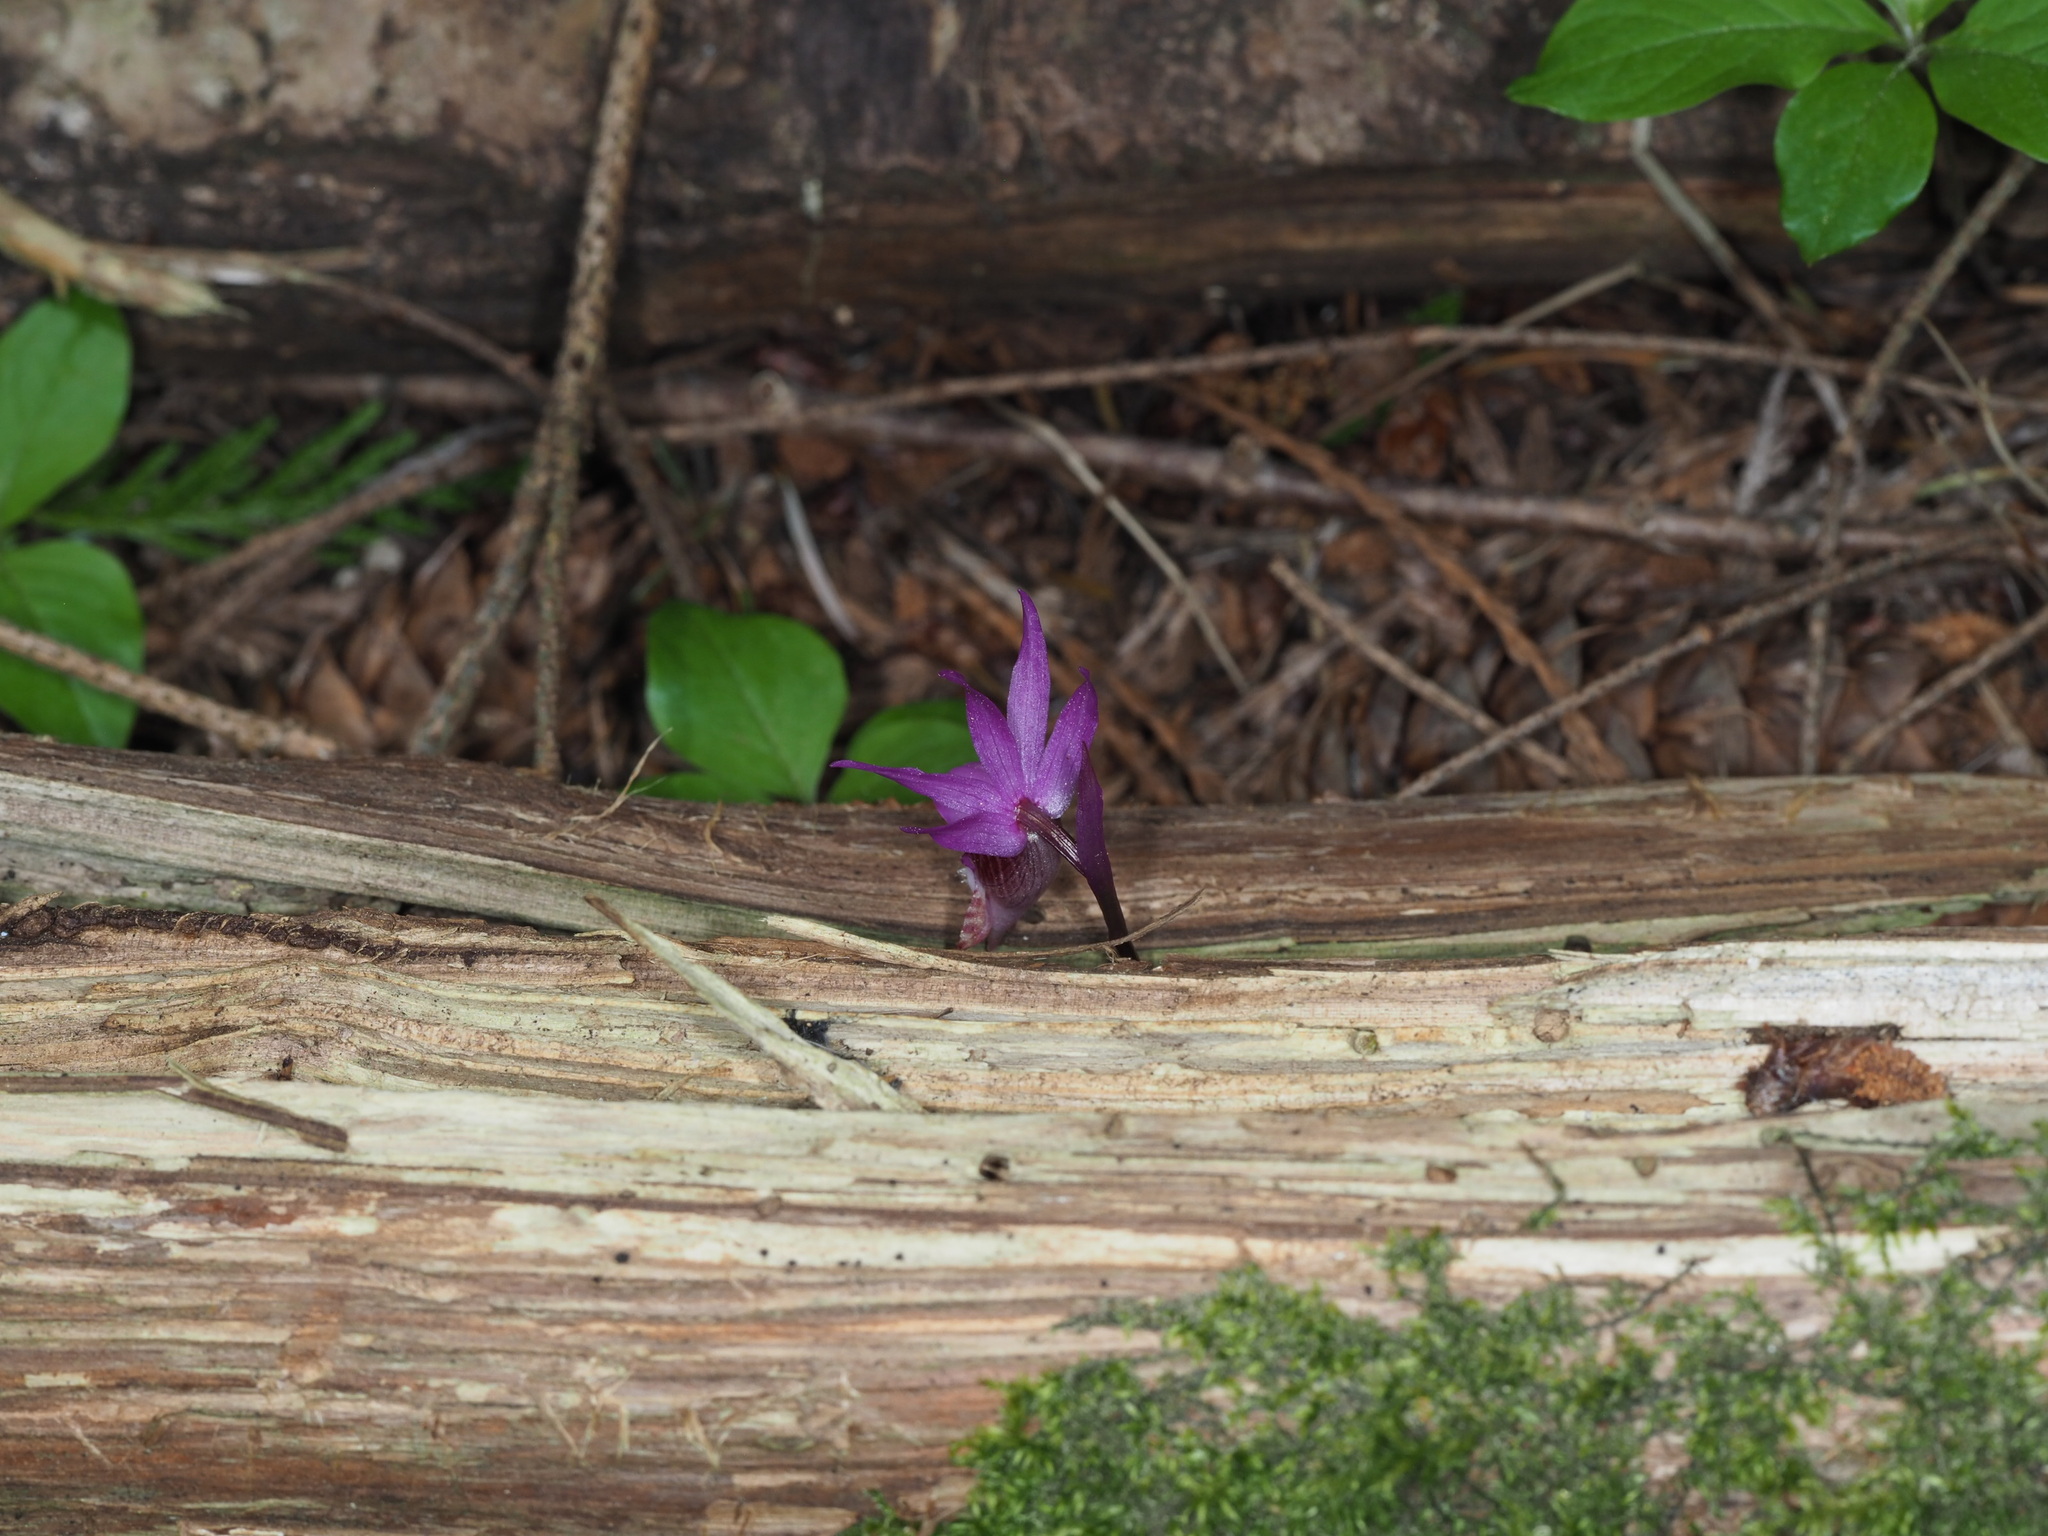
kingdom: Plantae
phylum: Tracheophyta
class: Liliopsida
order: Asparagales
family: Orchidaceae
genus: Calypso
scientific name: Calypso bulbosa
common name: Calypso
